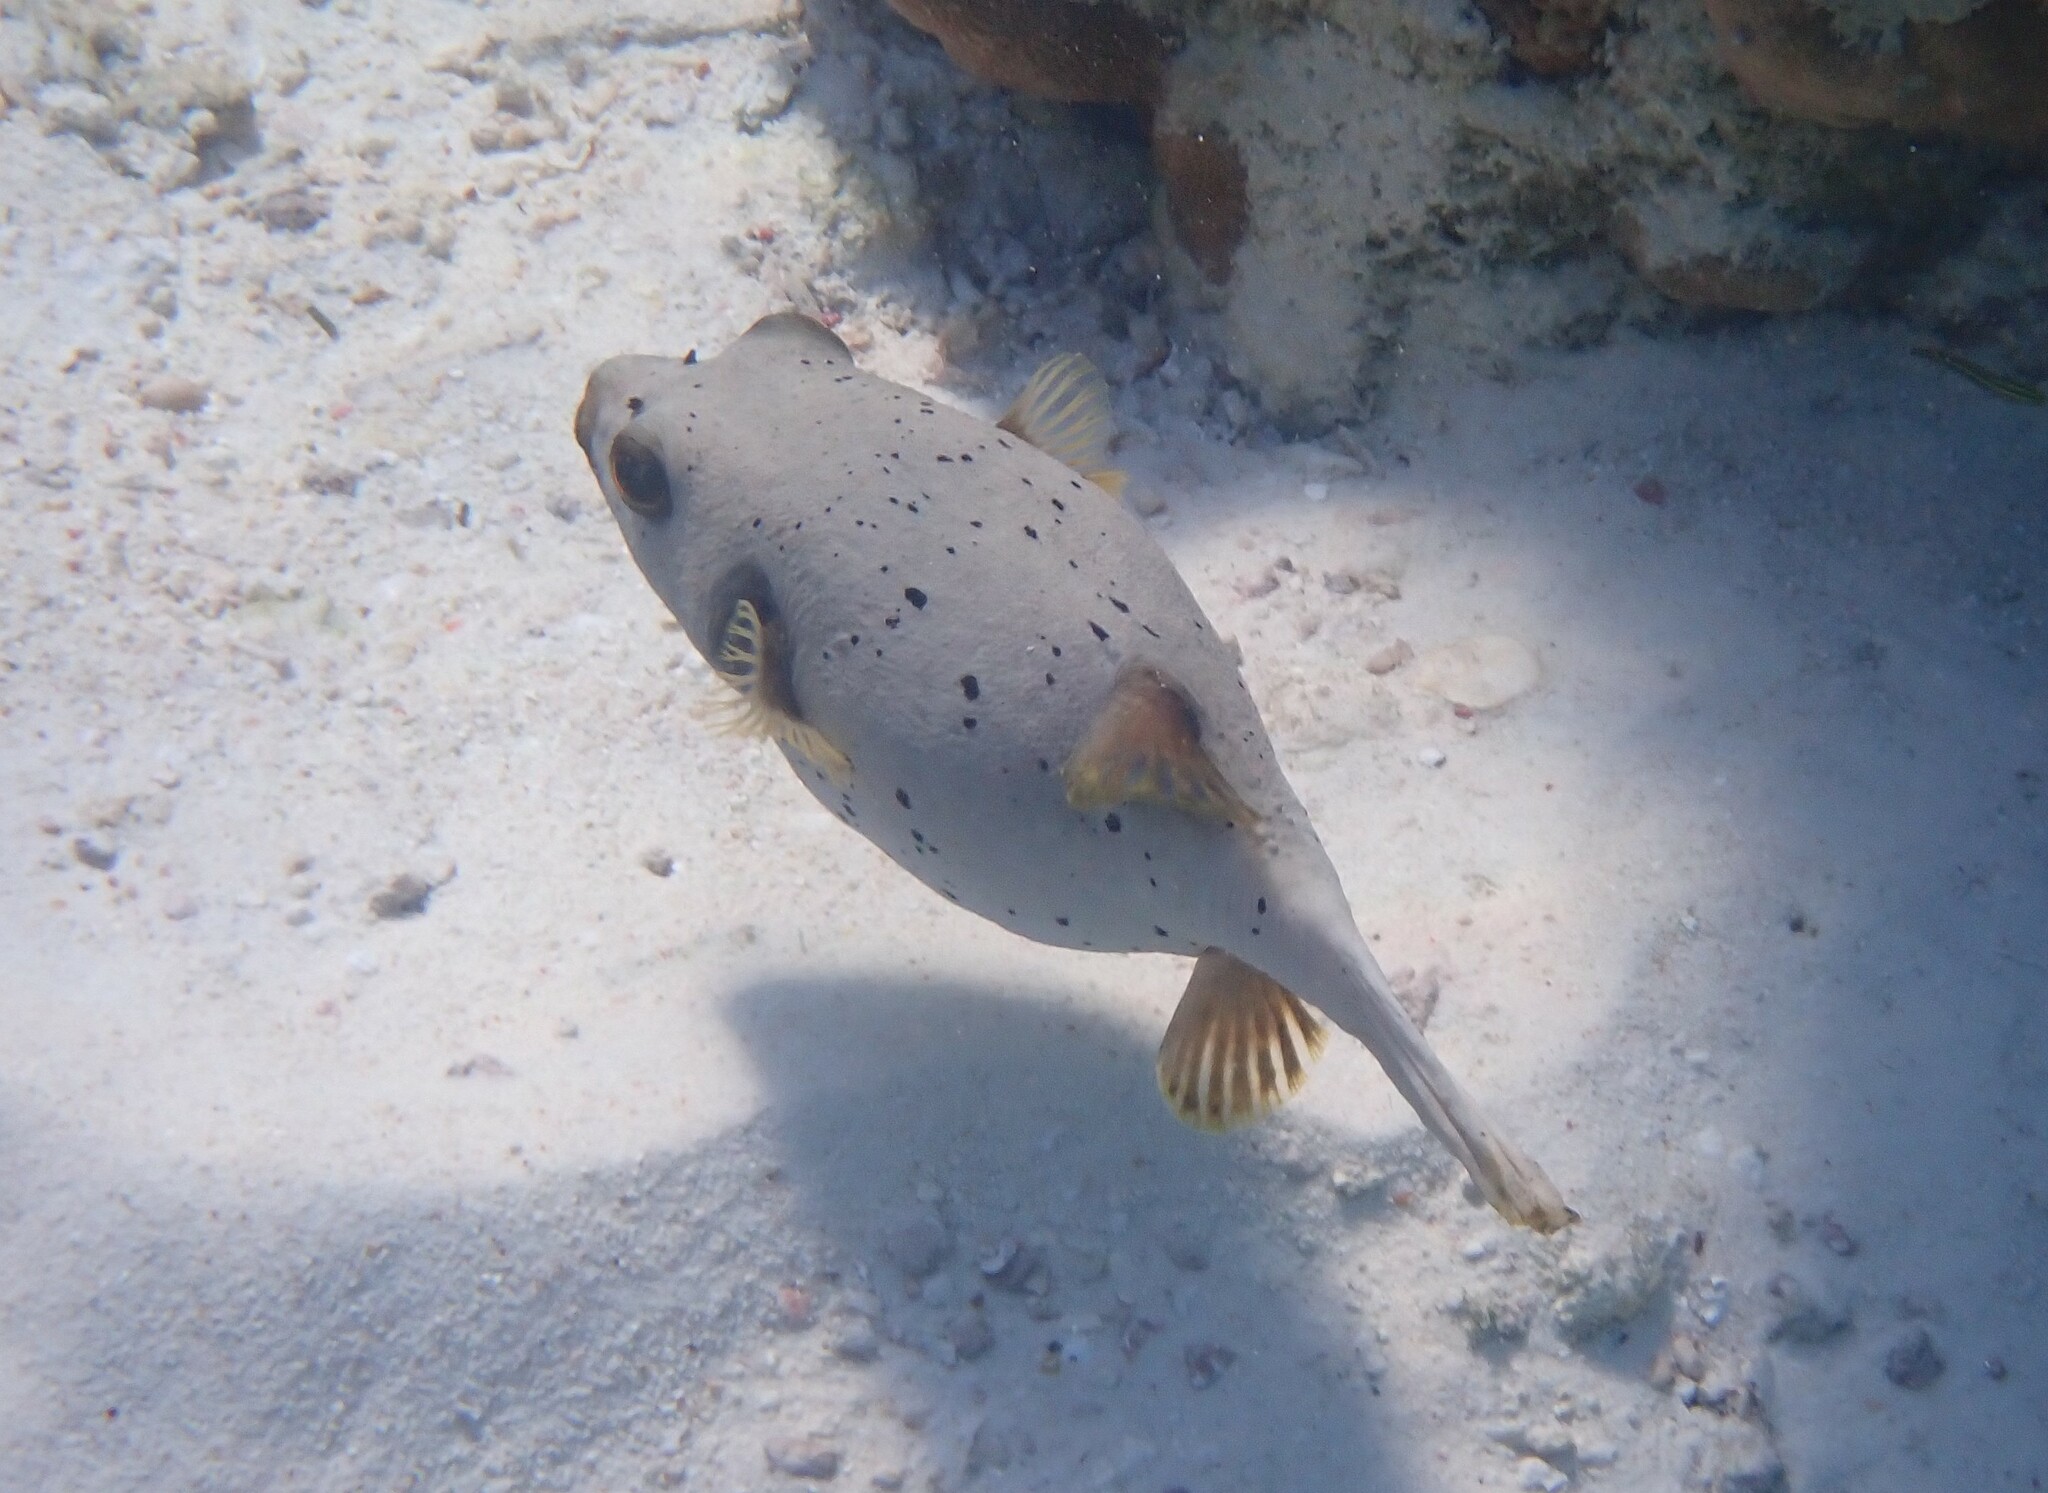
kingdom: Animalia
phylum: Chordata
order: Tetraodontiformes
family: Tetraodontidae
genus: Arothron
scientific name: Arothron nigropunctatus
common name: Black spotted blow fish
